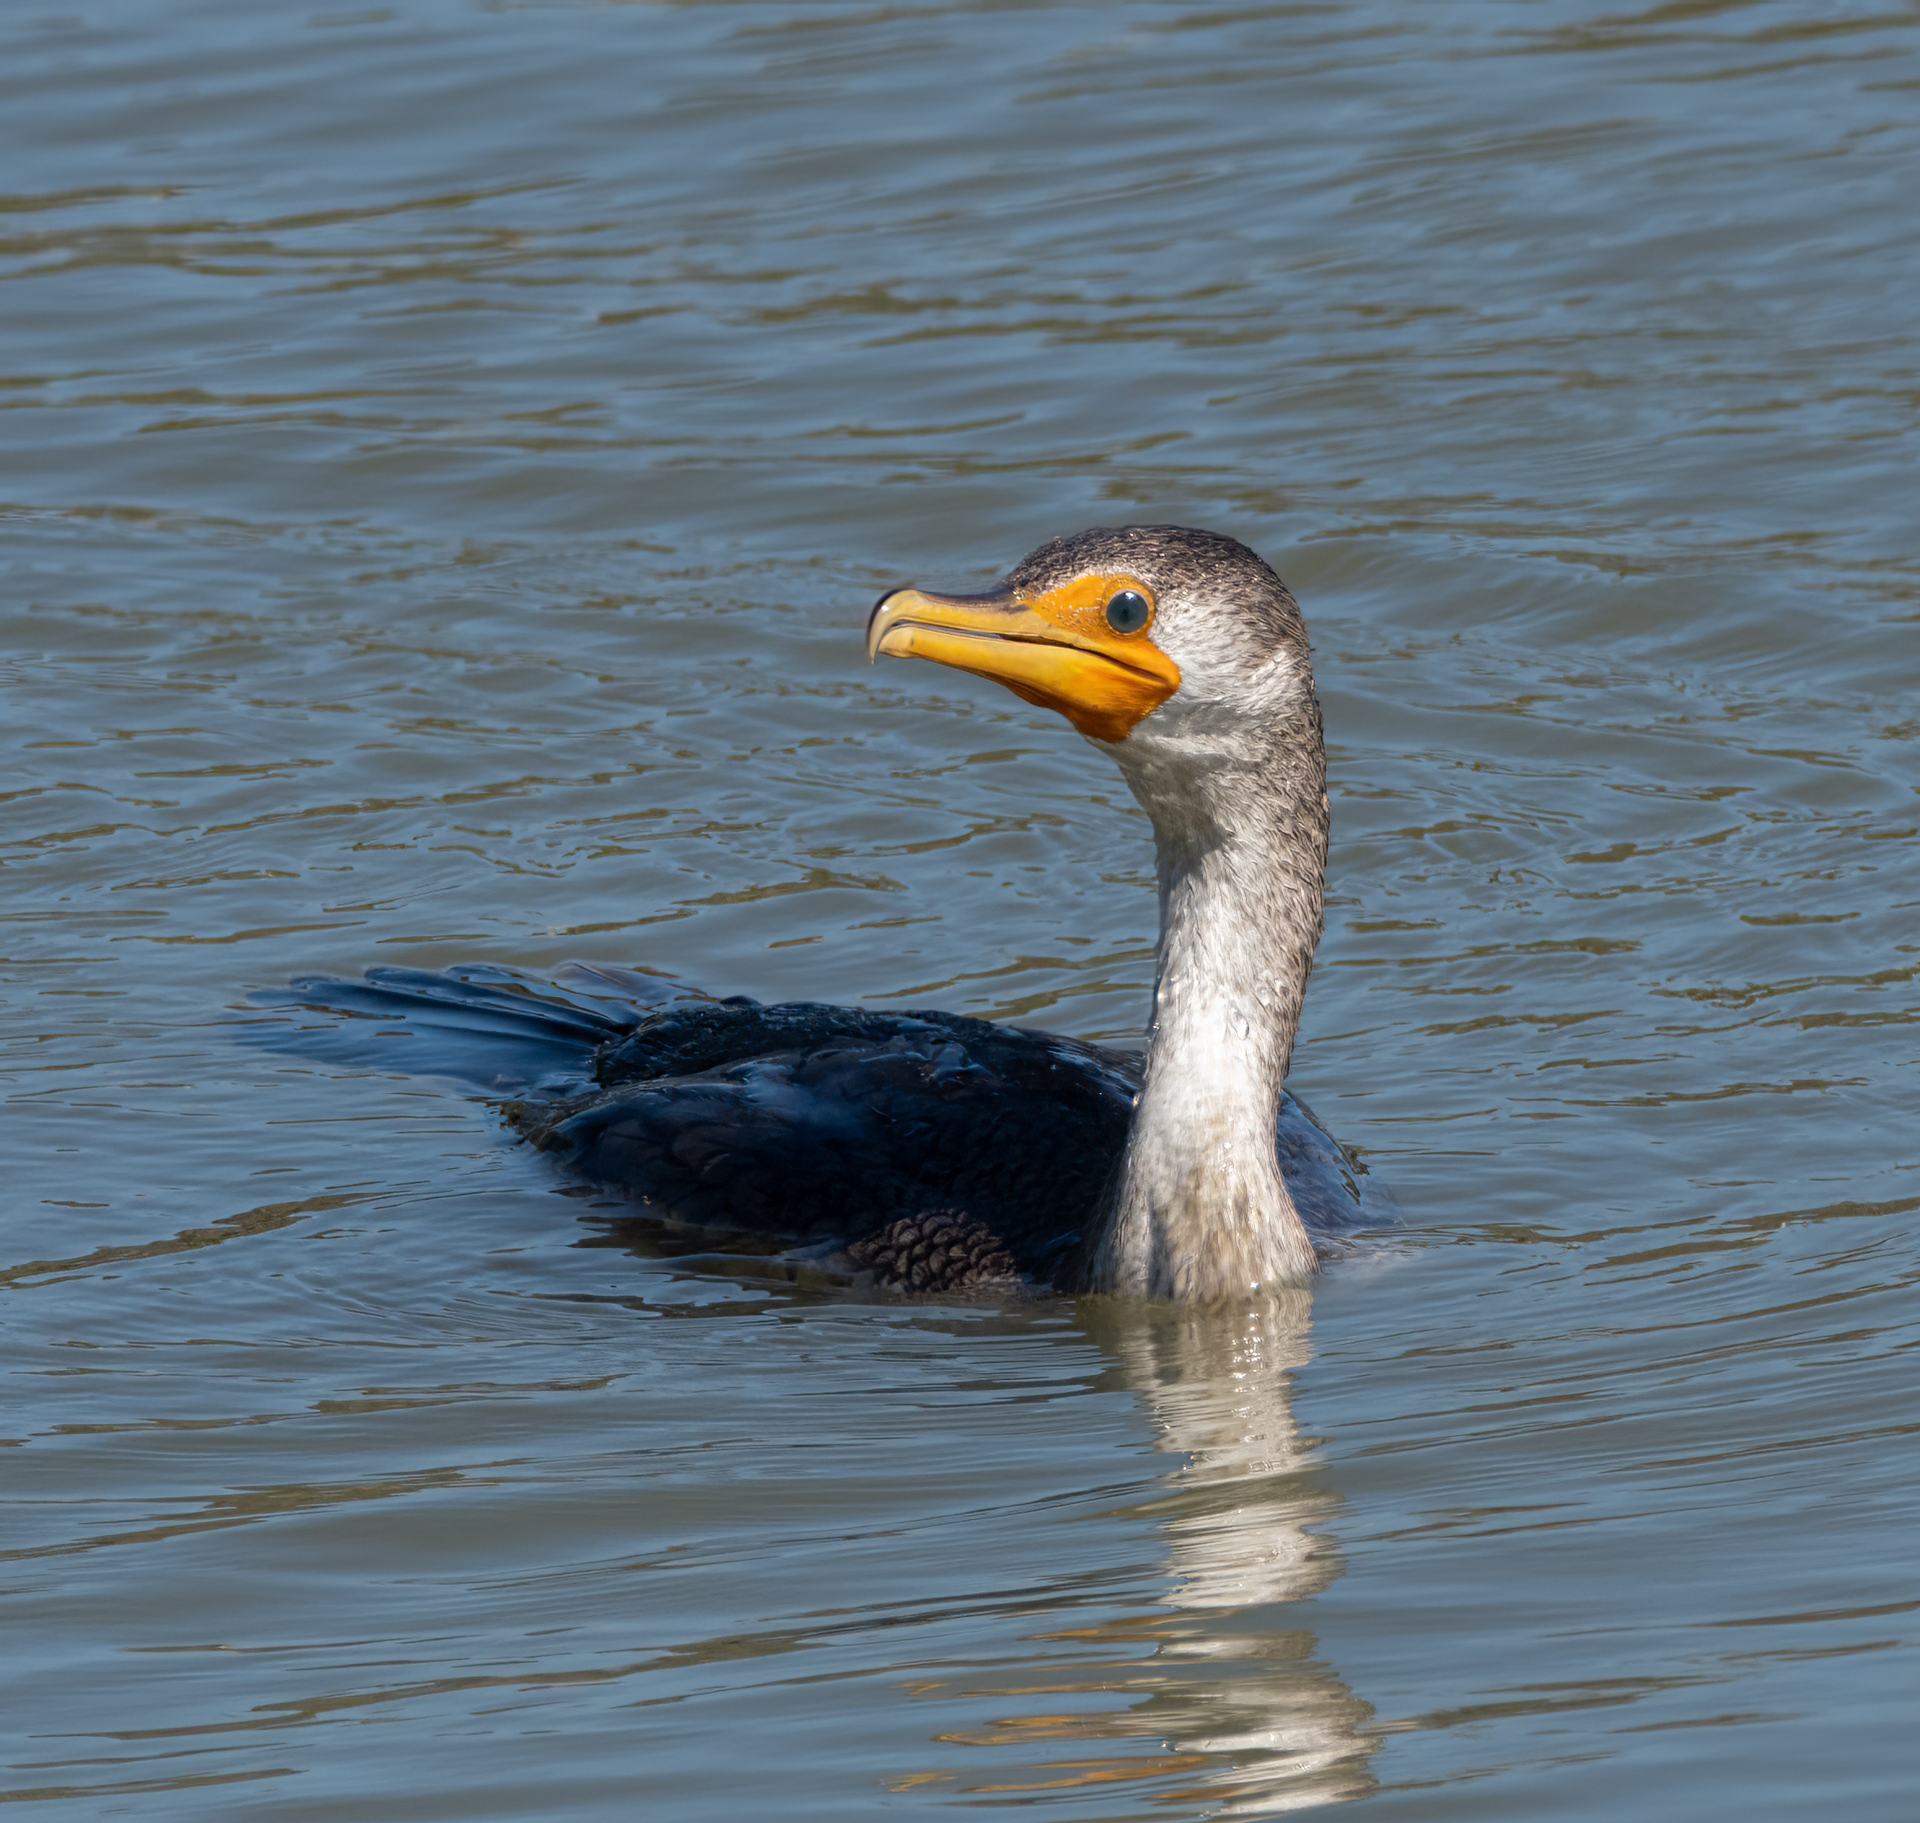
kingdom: Animalia
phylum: Chordata
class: Aves
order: Suliformes
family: Phalacrocoracidae
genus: Phalacrocorax
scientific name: Phalacrocorax auritus
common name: Double-crested cormorant
